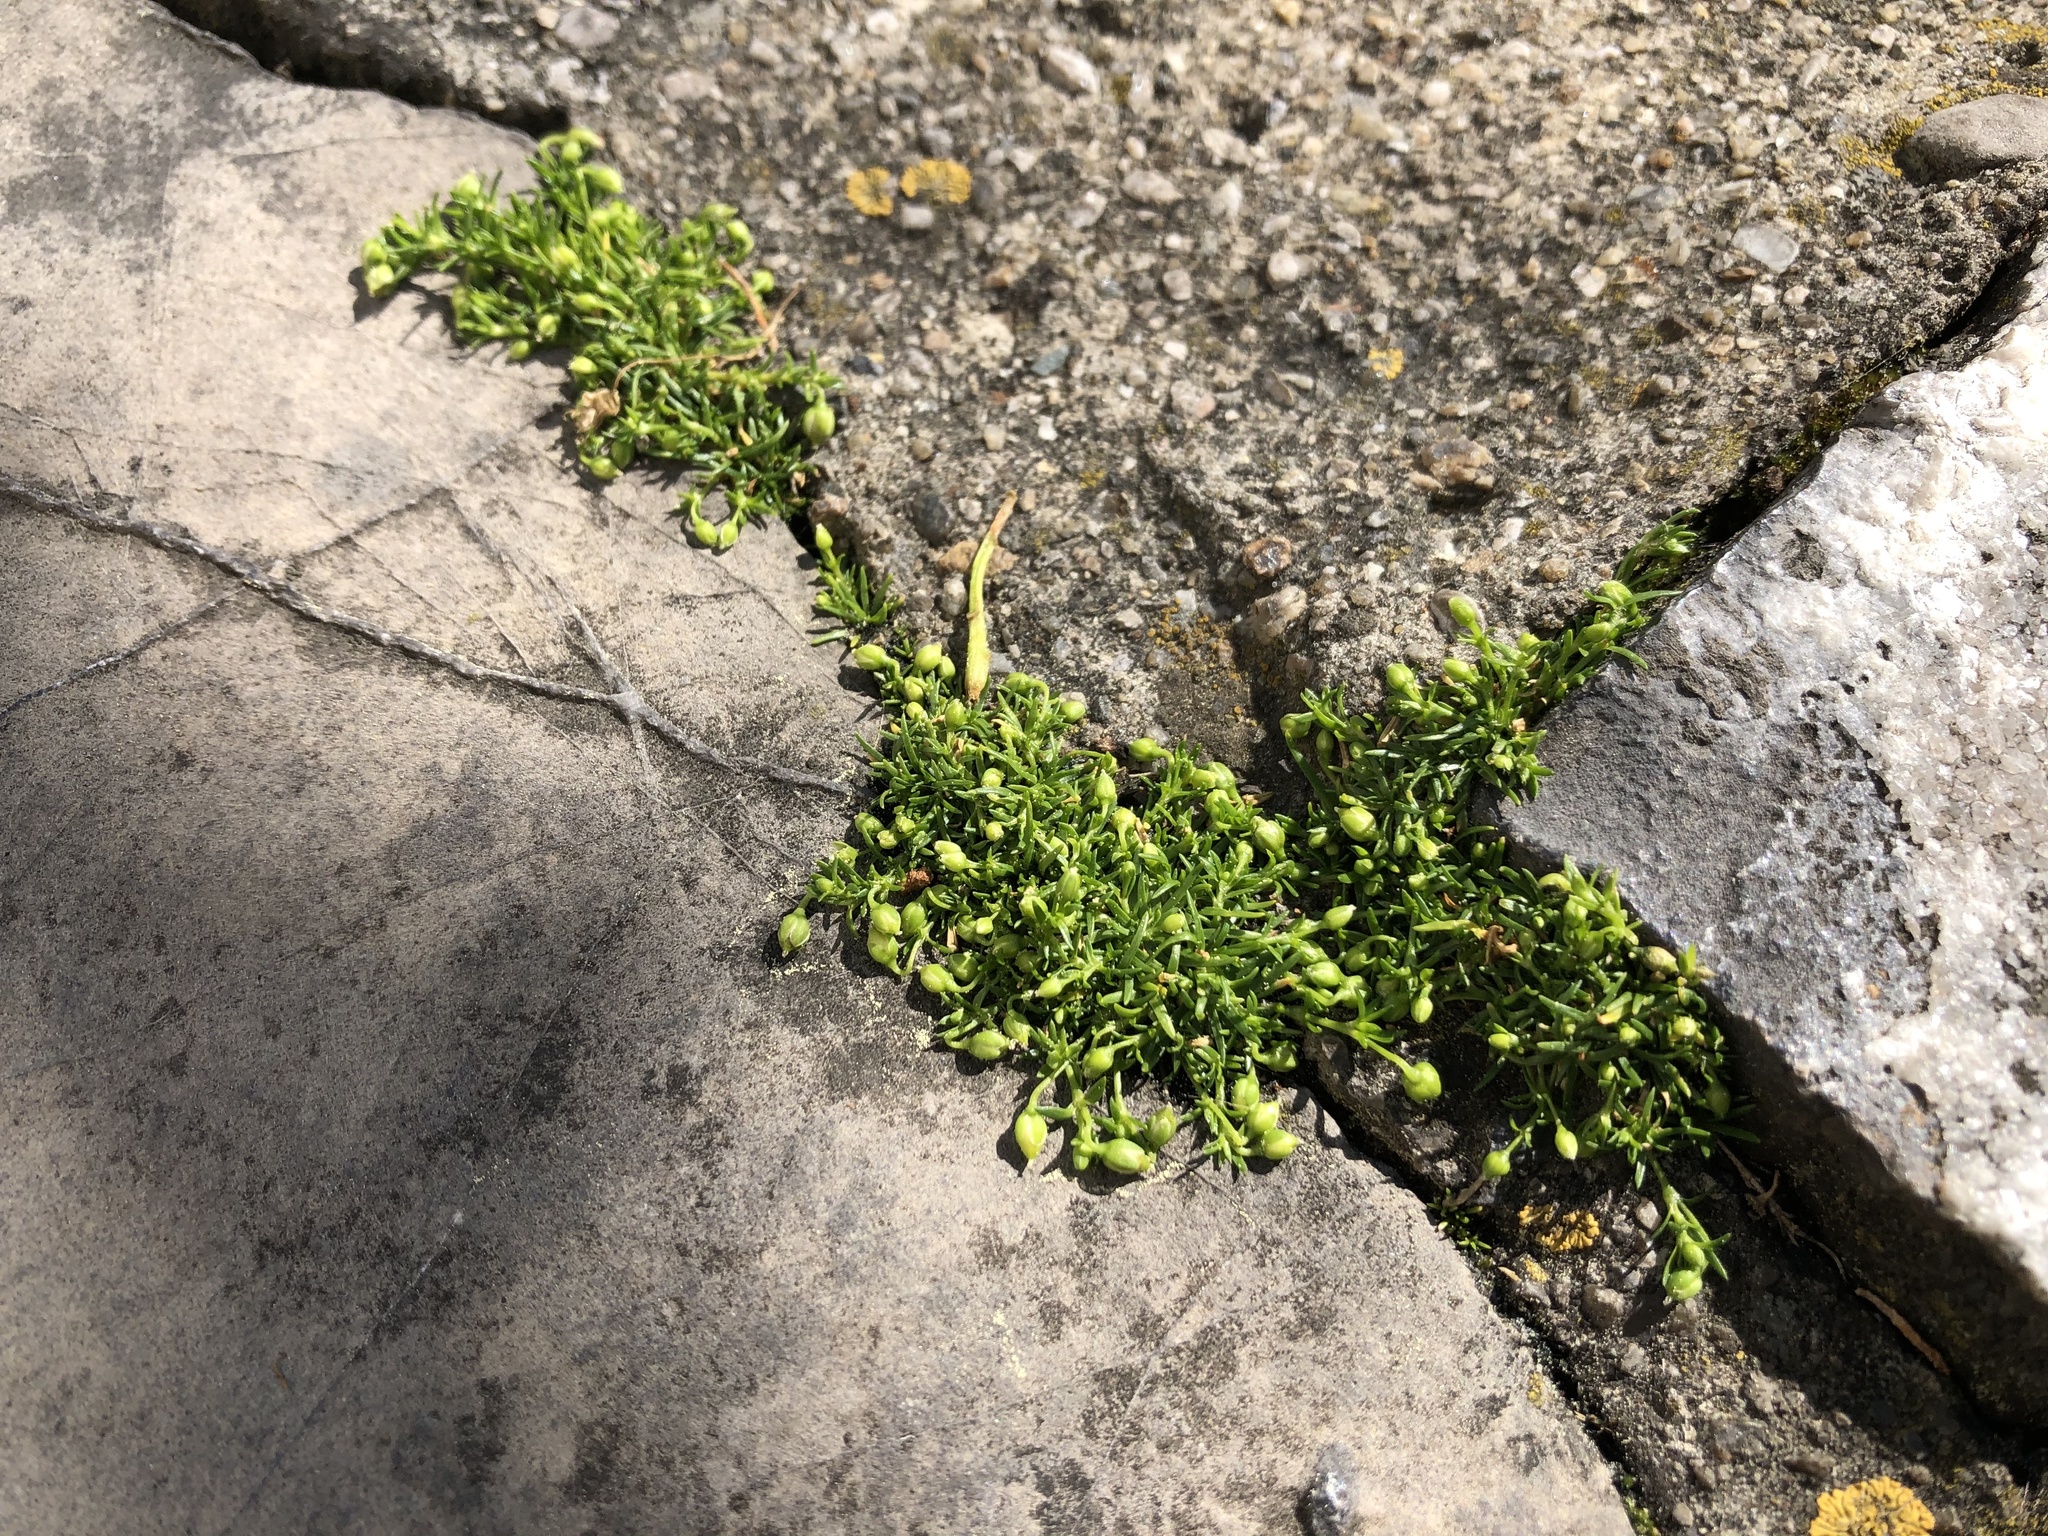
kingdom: Plantae
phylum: Tracheophyta
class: Magnoliopsida
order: Caryophyllales
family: Caryophyllaceae
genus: Sagina
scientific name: Sagina procumbens
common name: Procumbent pearlwort
